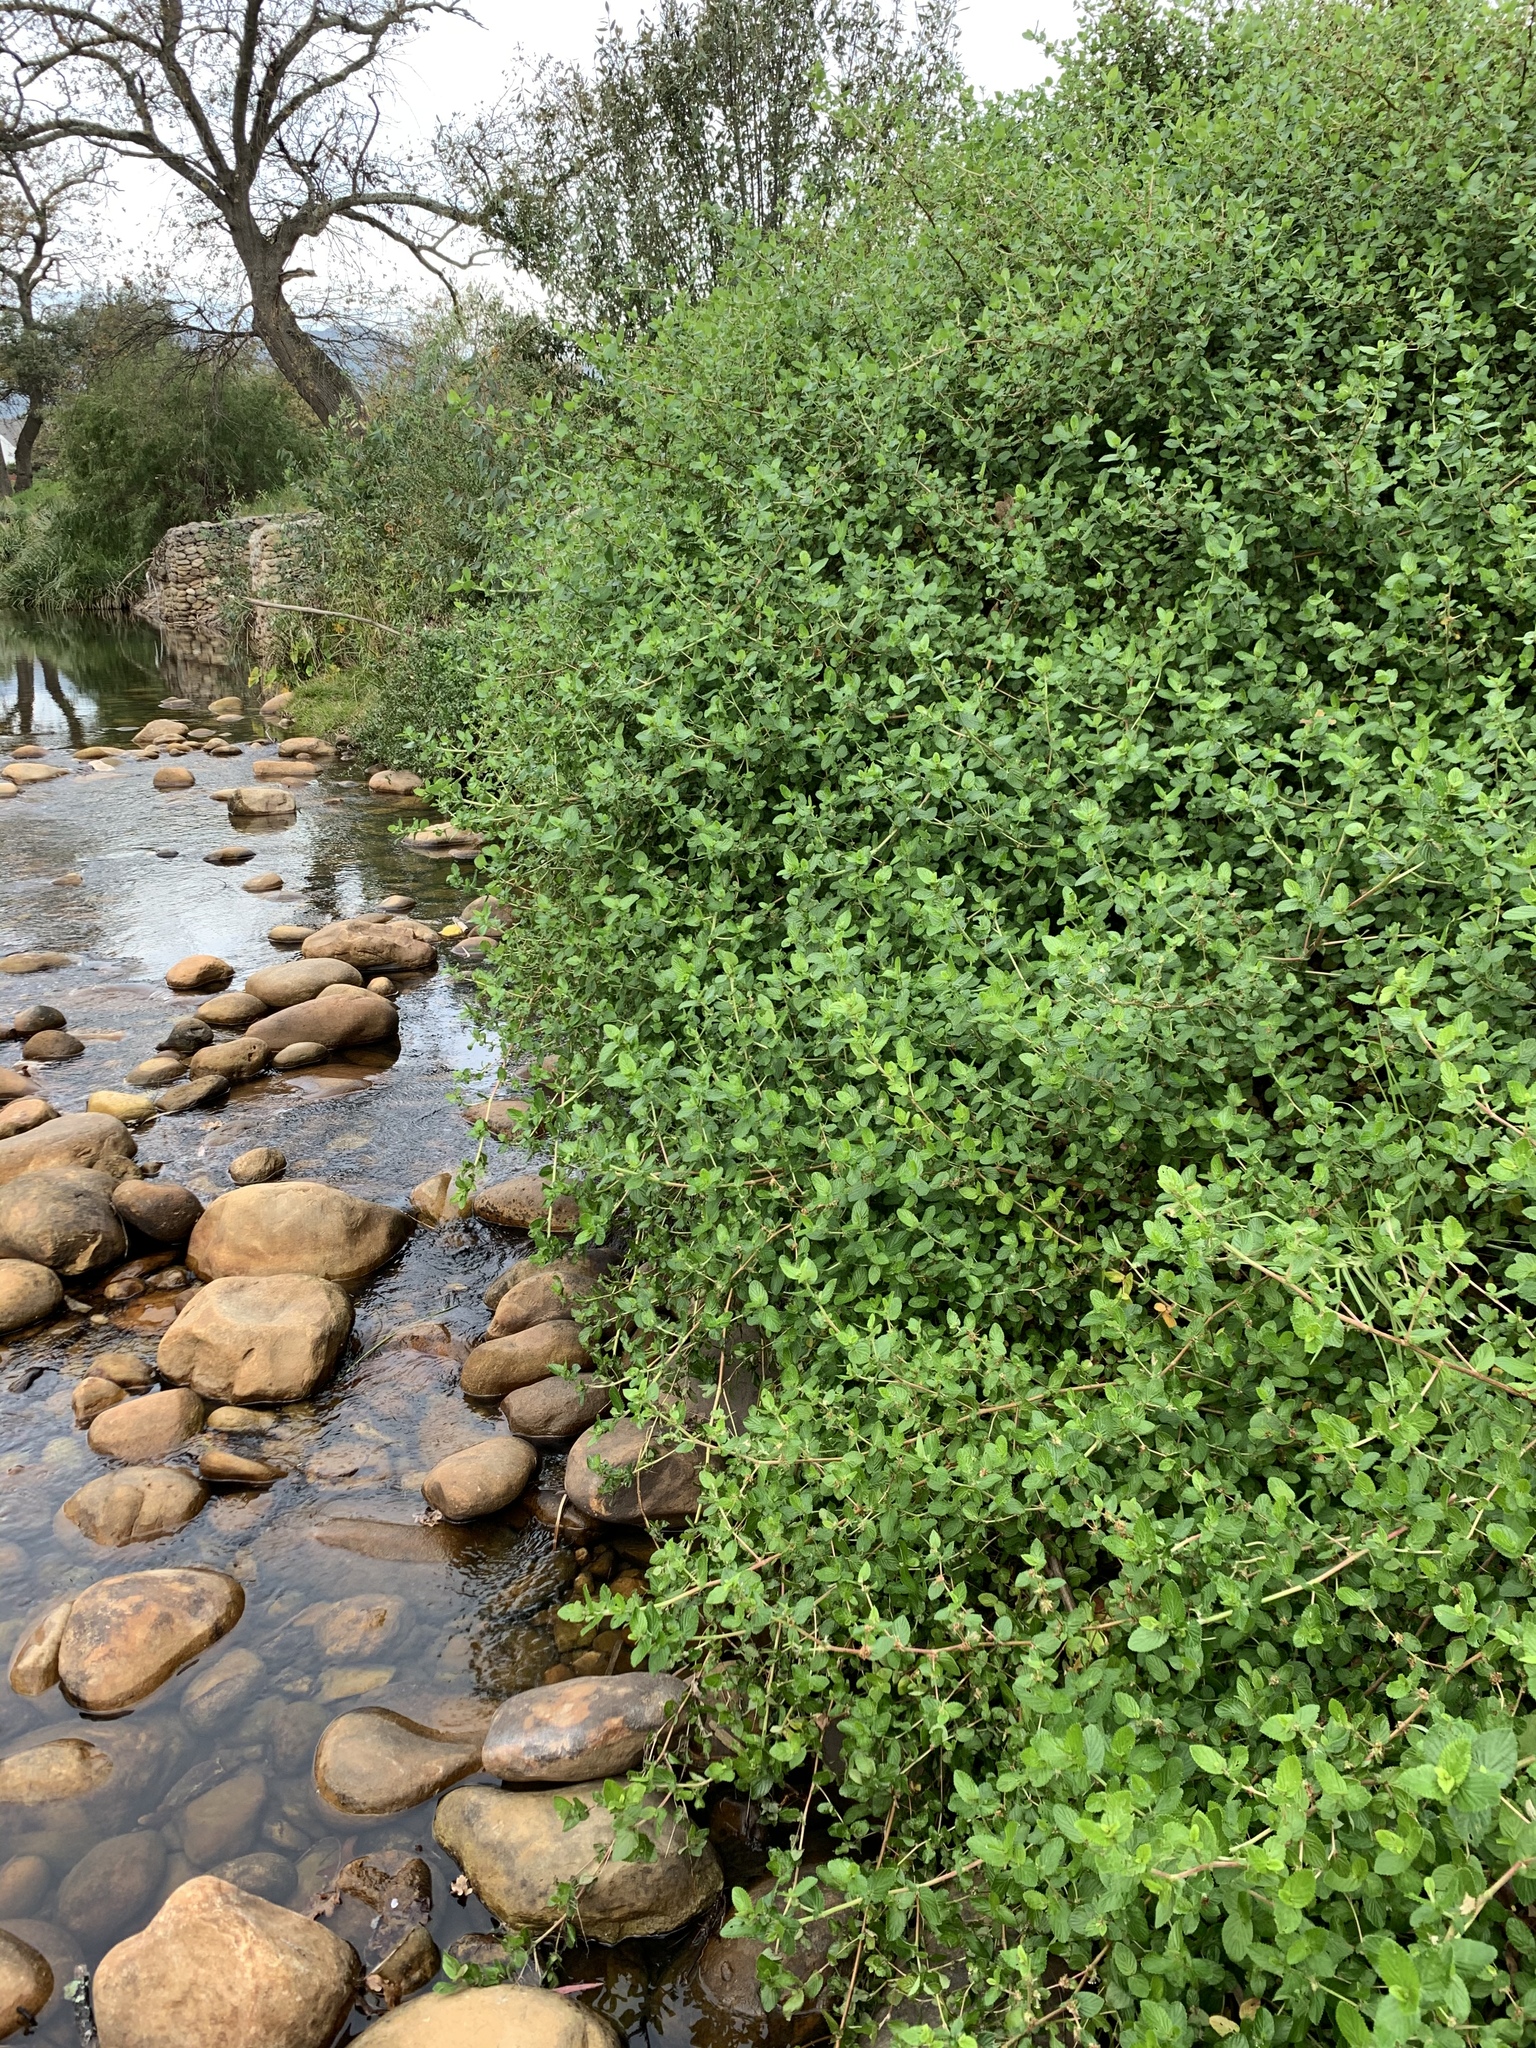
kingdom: Plantae
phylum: Tracheophyta
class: Magnoliopsida
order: Rosales
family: Rosaceae
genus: Cliffortia
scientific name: Cliffortia odorata
